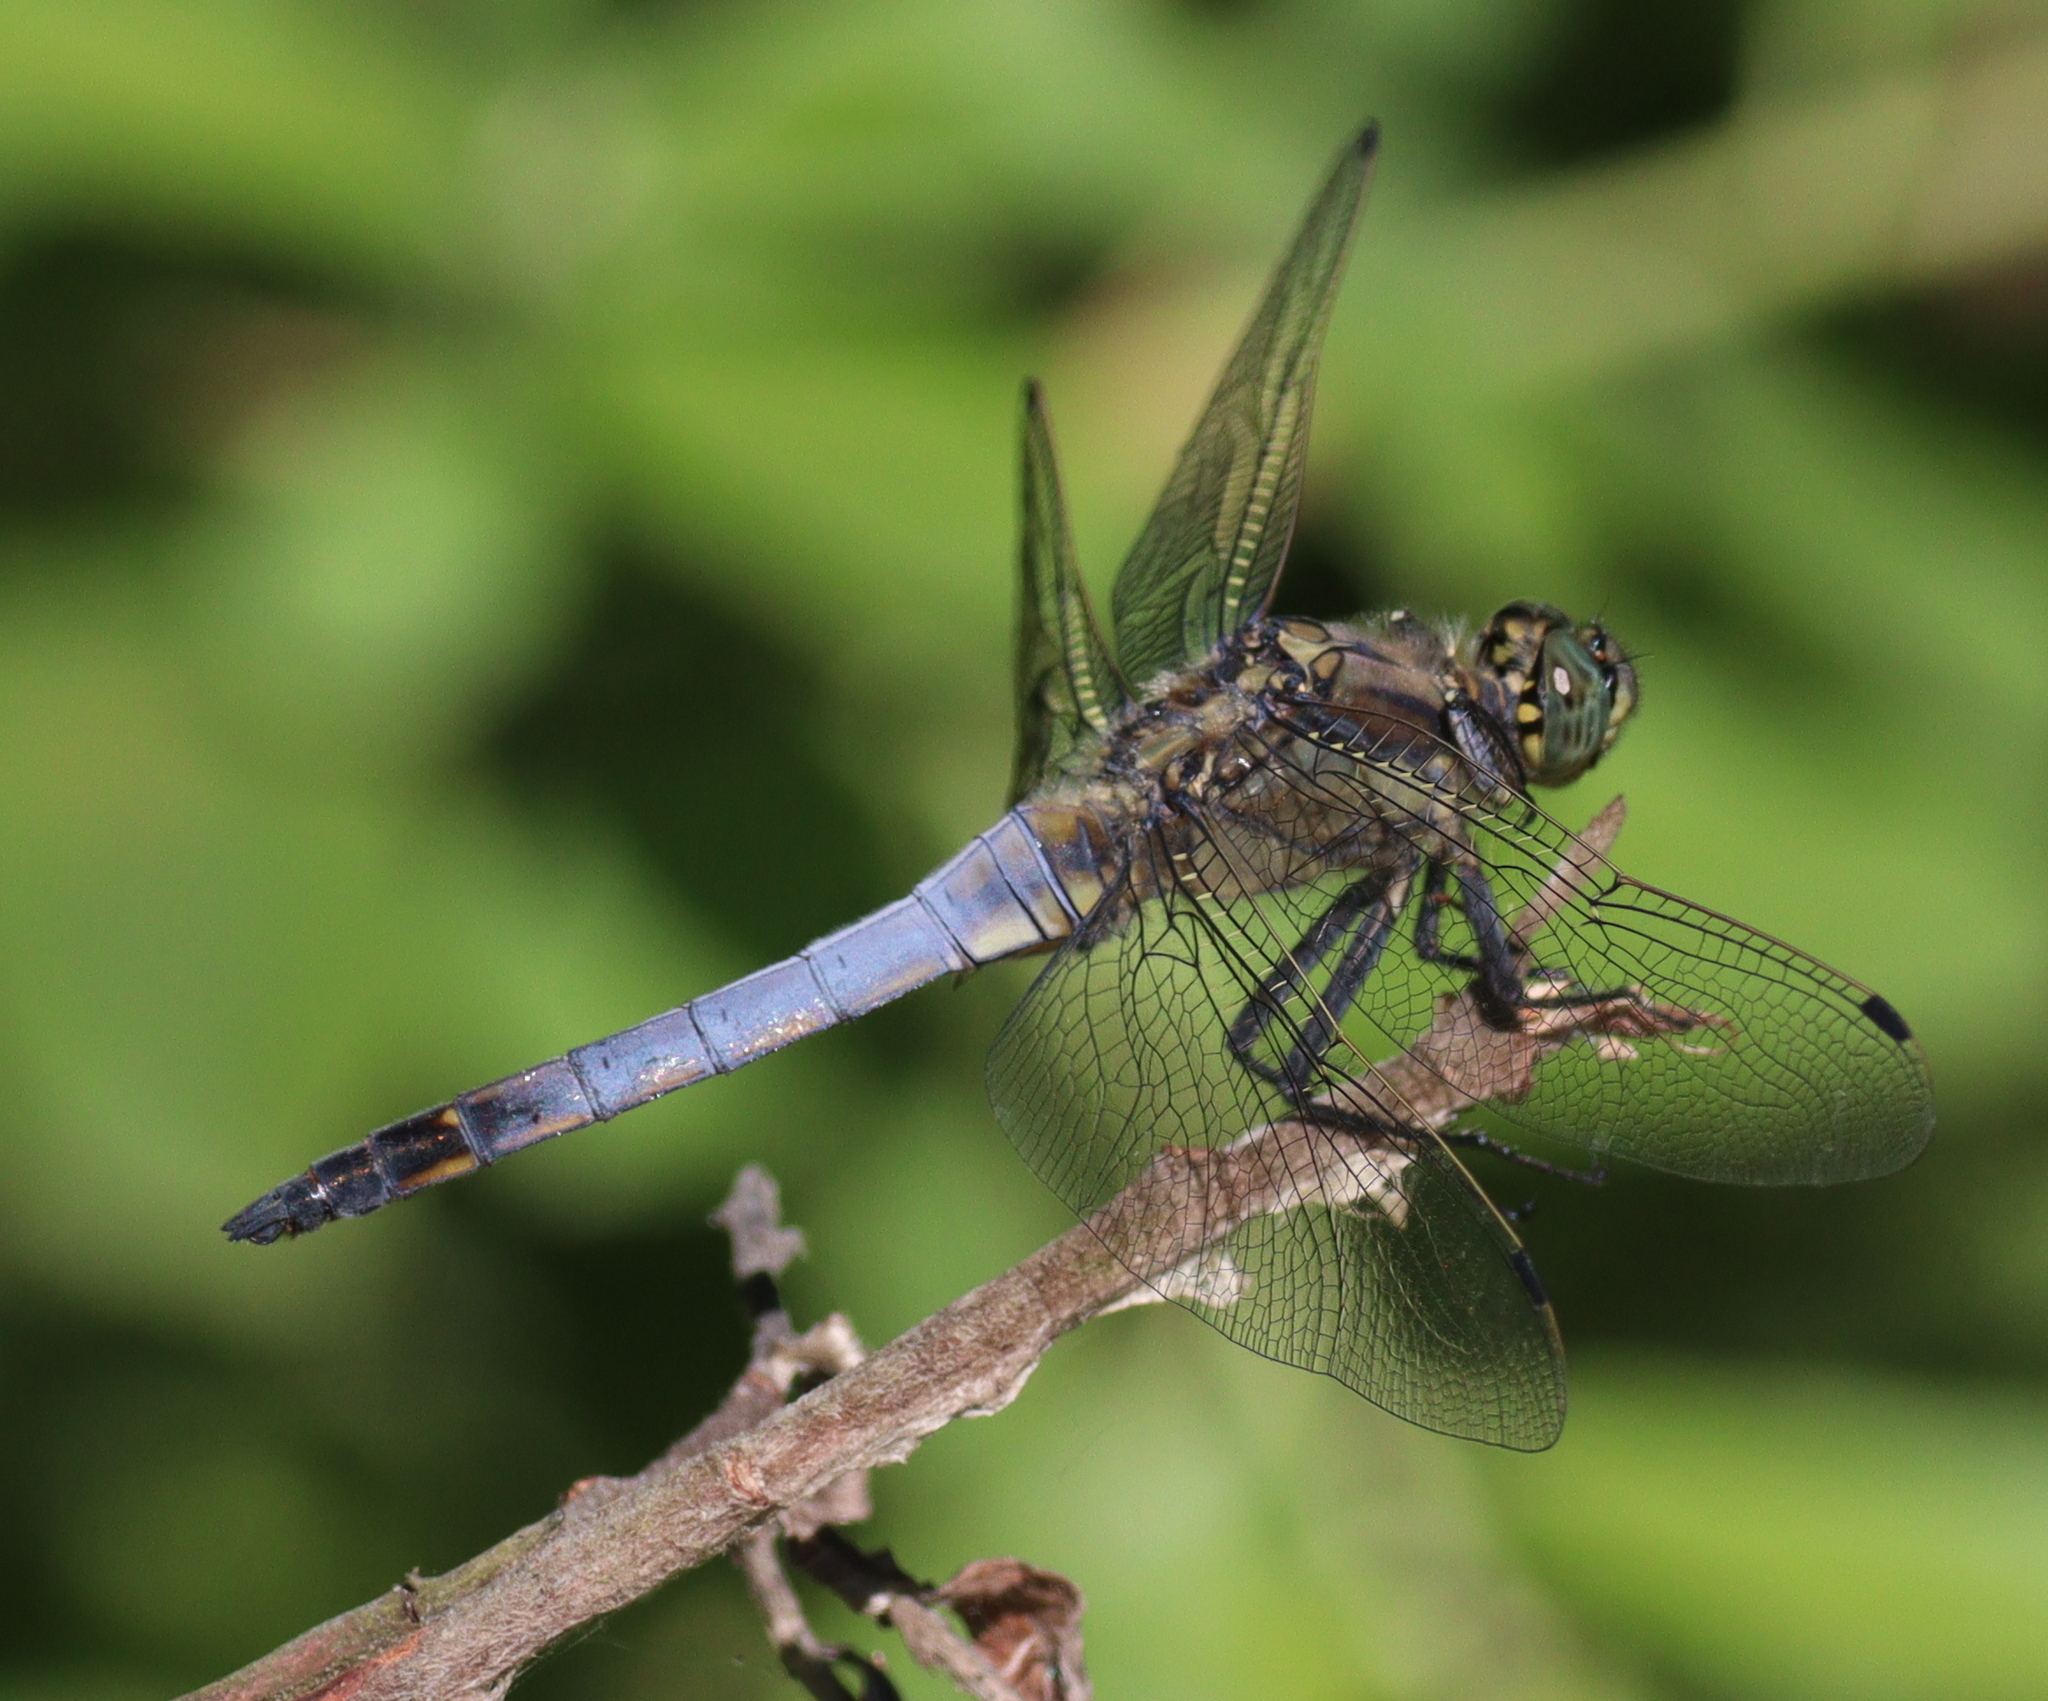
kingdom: Animalia
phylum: Arthropoda
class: Insecta
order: Odonata
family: Libellulidae
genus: Orthetrum
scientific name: Orthetrum cancellatum
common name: Black-tailed skimmer
